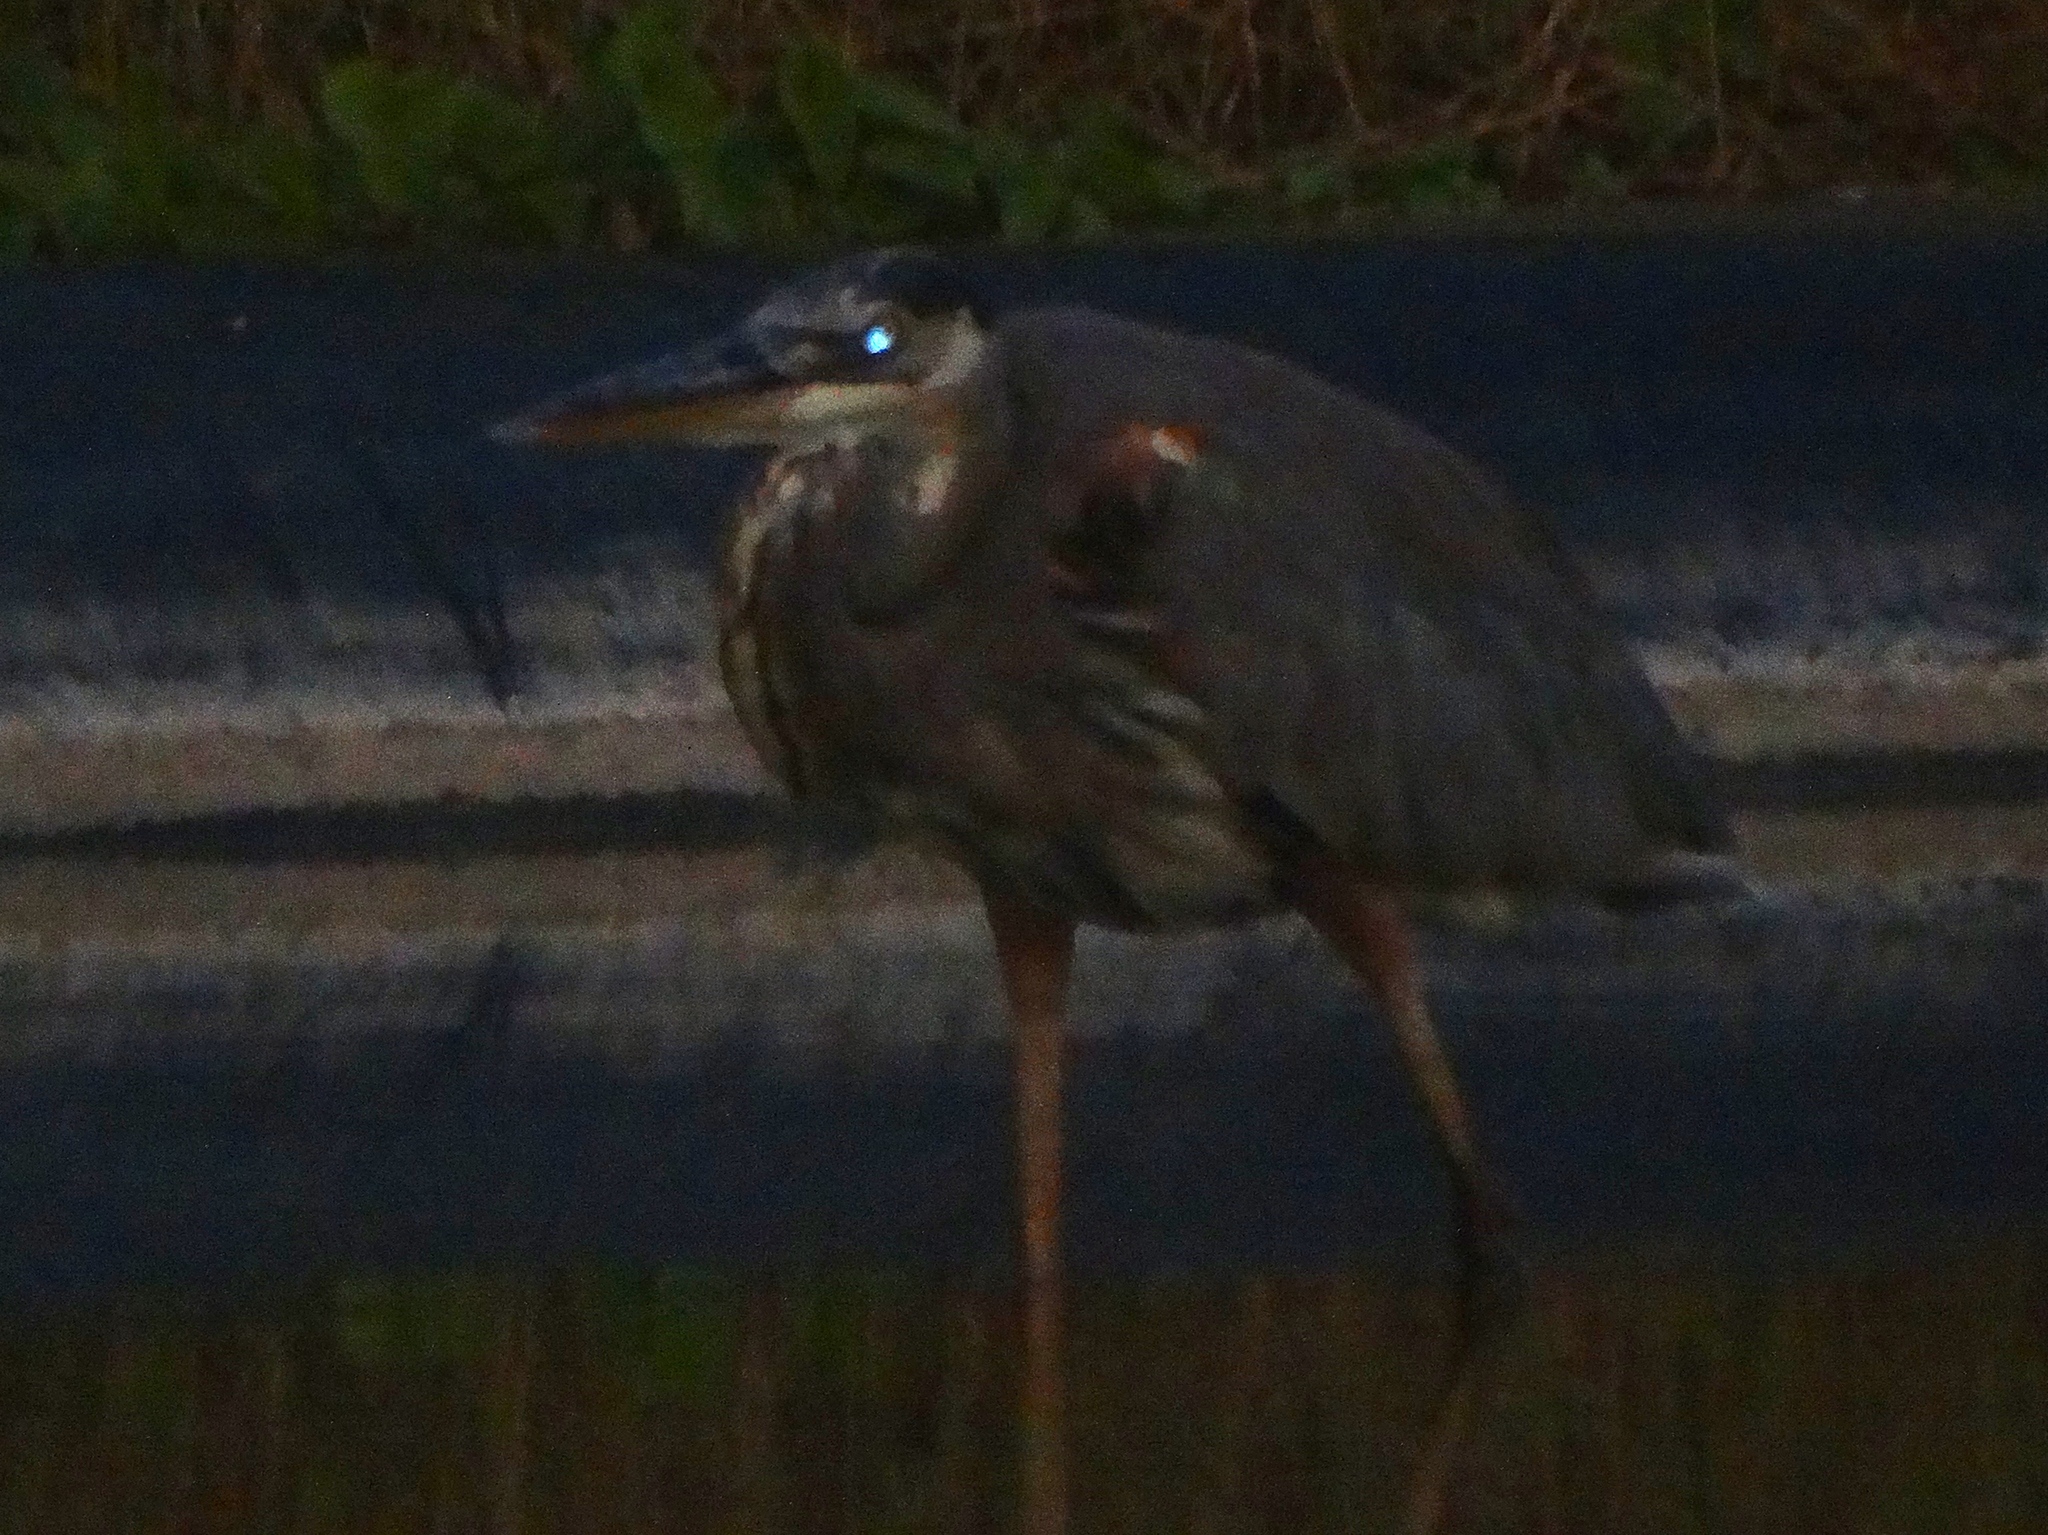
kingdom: Animalia
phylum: Chordata
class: Aves
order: Pelecaniformes
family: Ardeidae
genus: Ardea
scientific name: Ardea herodias
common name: Great blue heron
